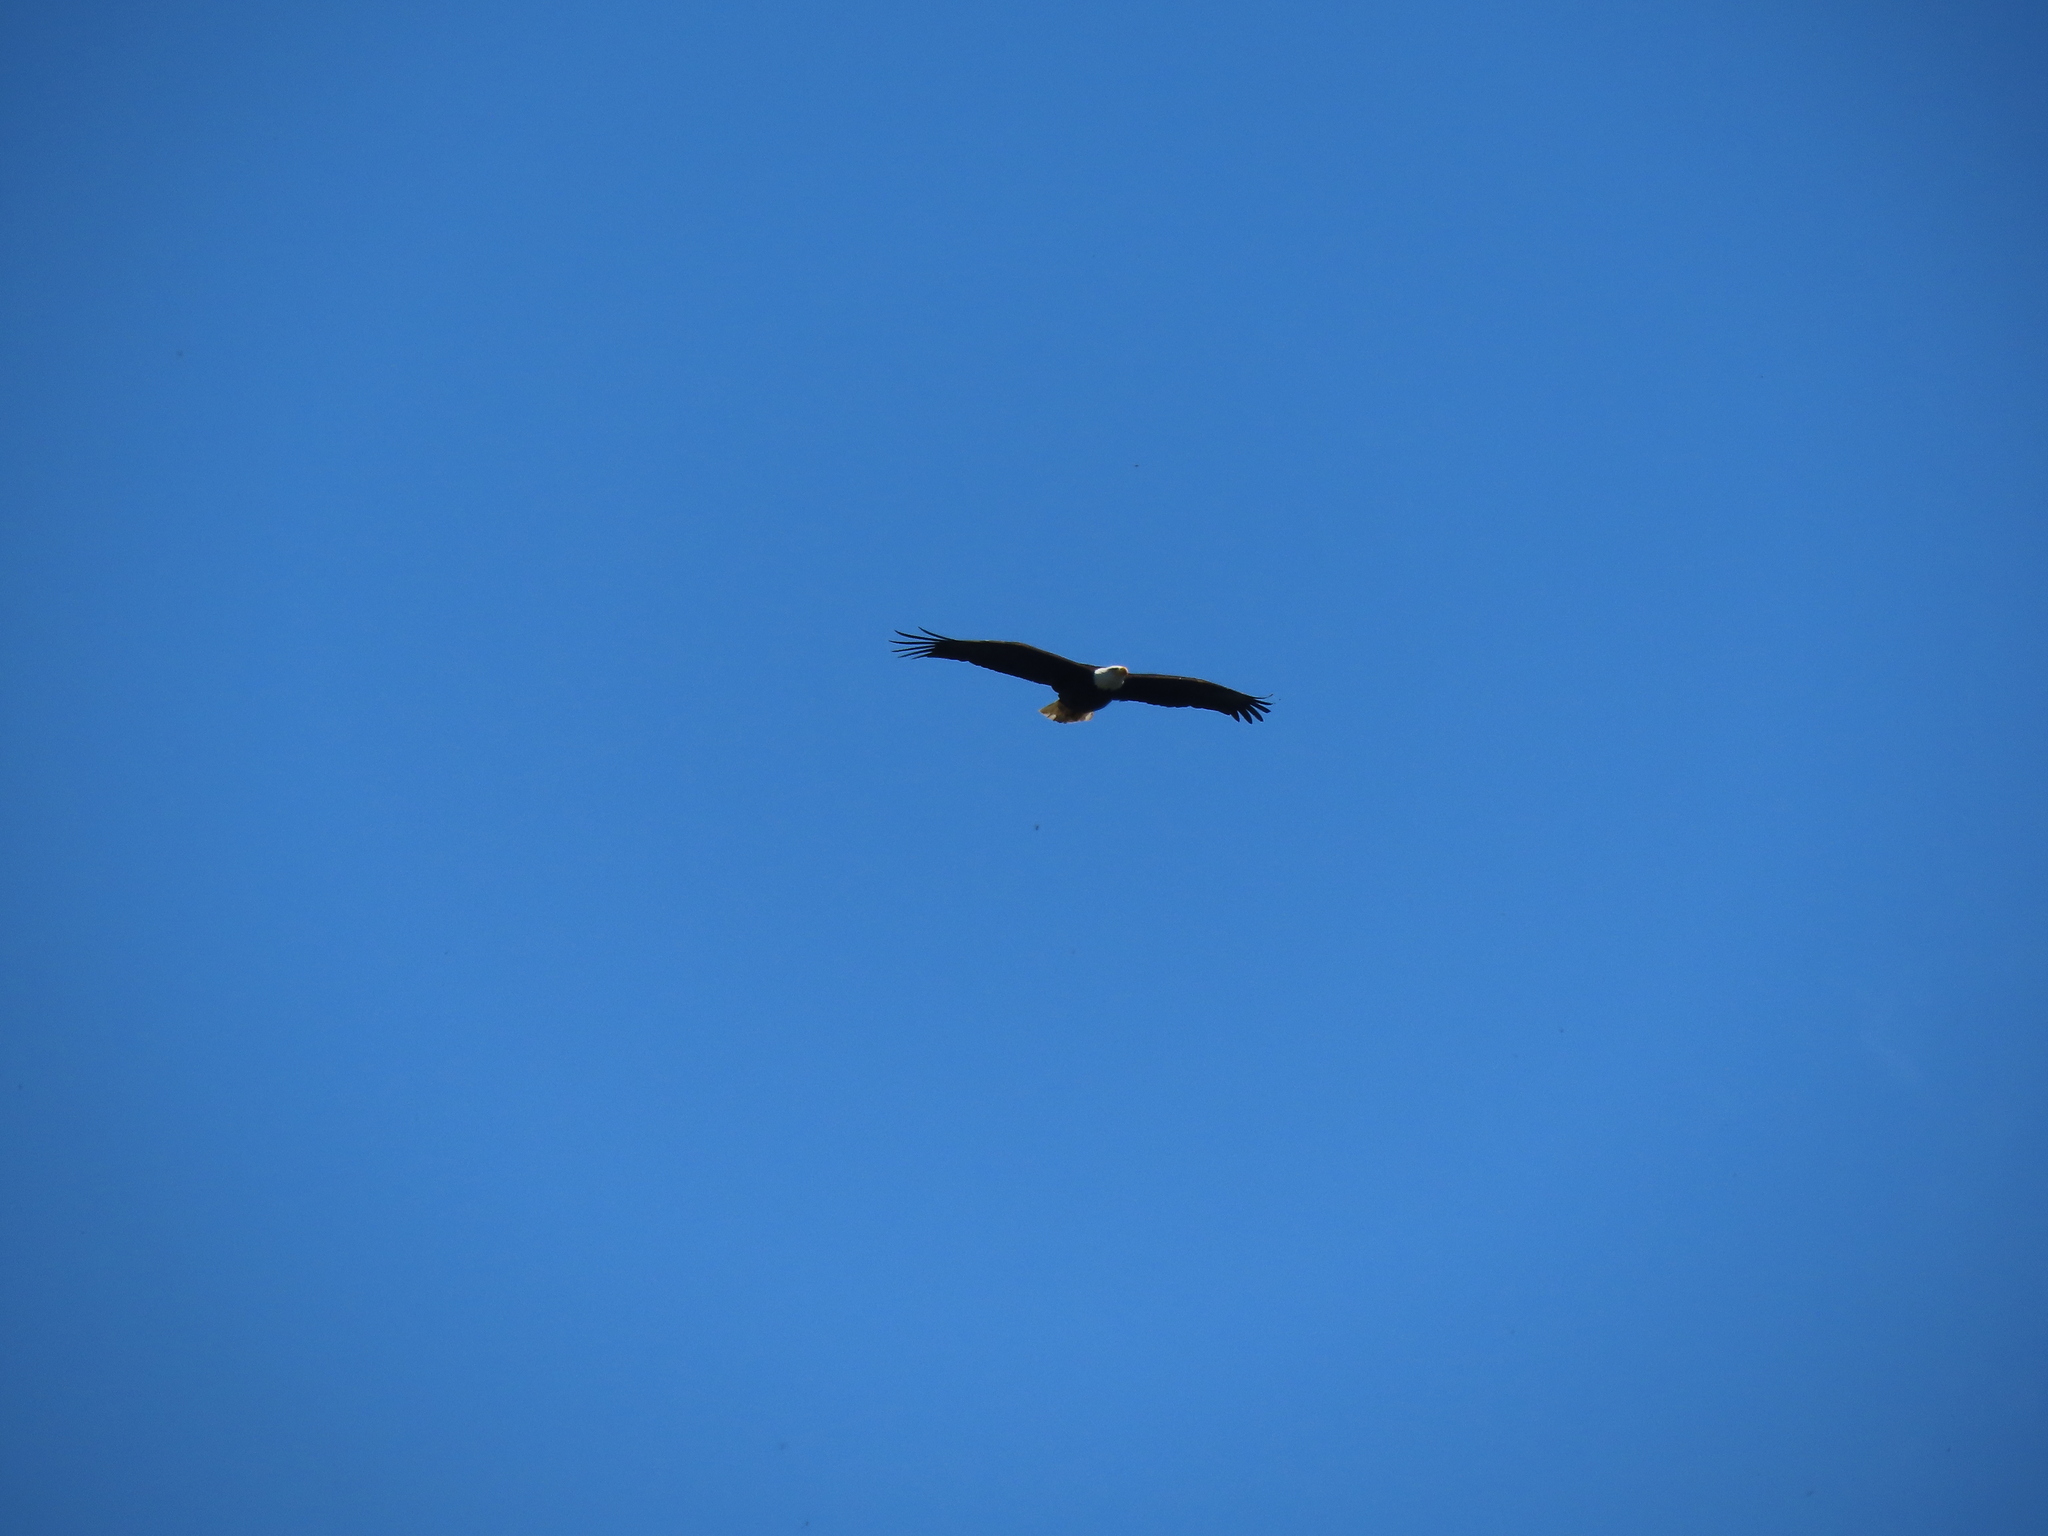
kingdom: Animalia
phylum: Chordata
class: Aves
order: Accipitriformes
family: Accipitridae
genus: Haliaeetus
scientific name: Haliaeetus leucocephalus
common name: Bald eagle
